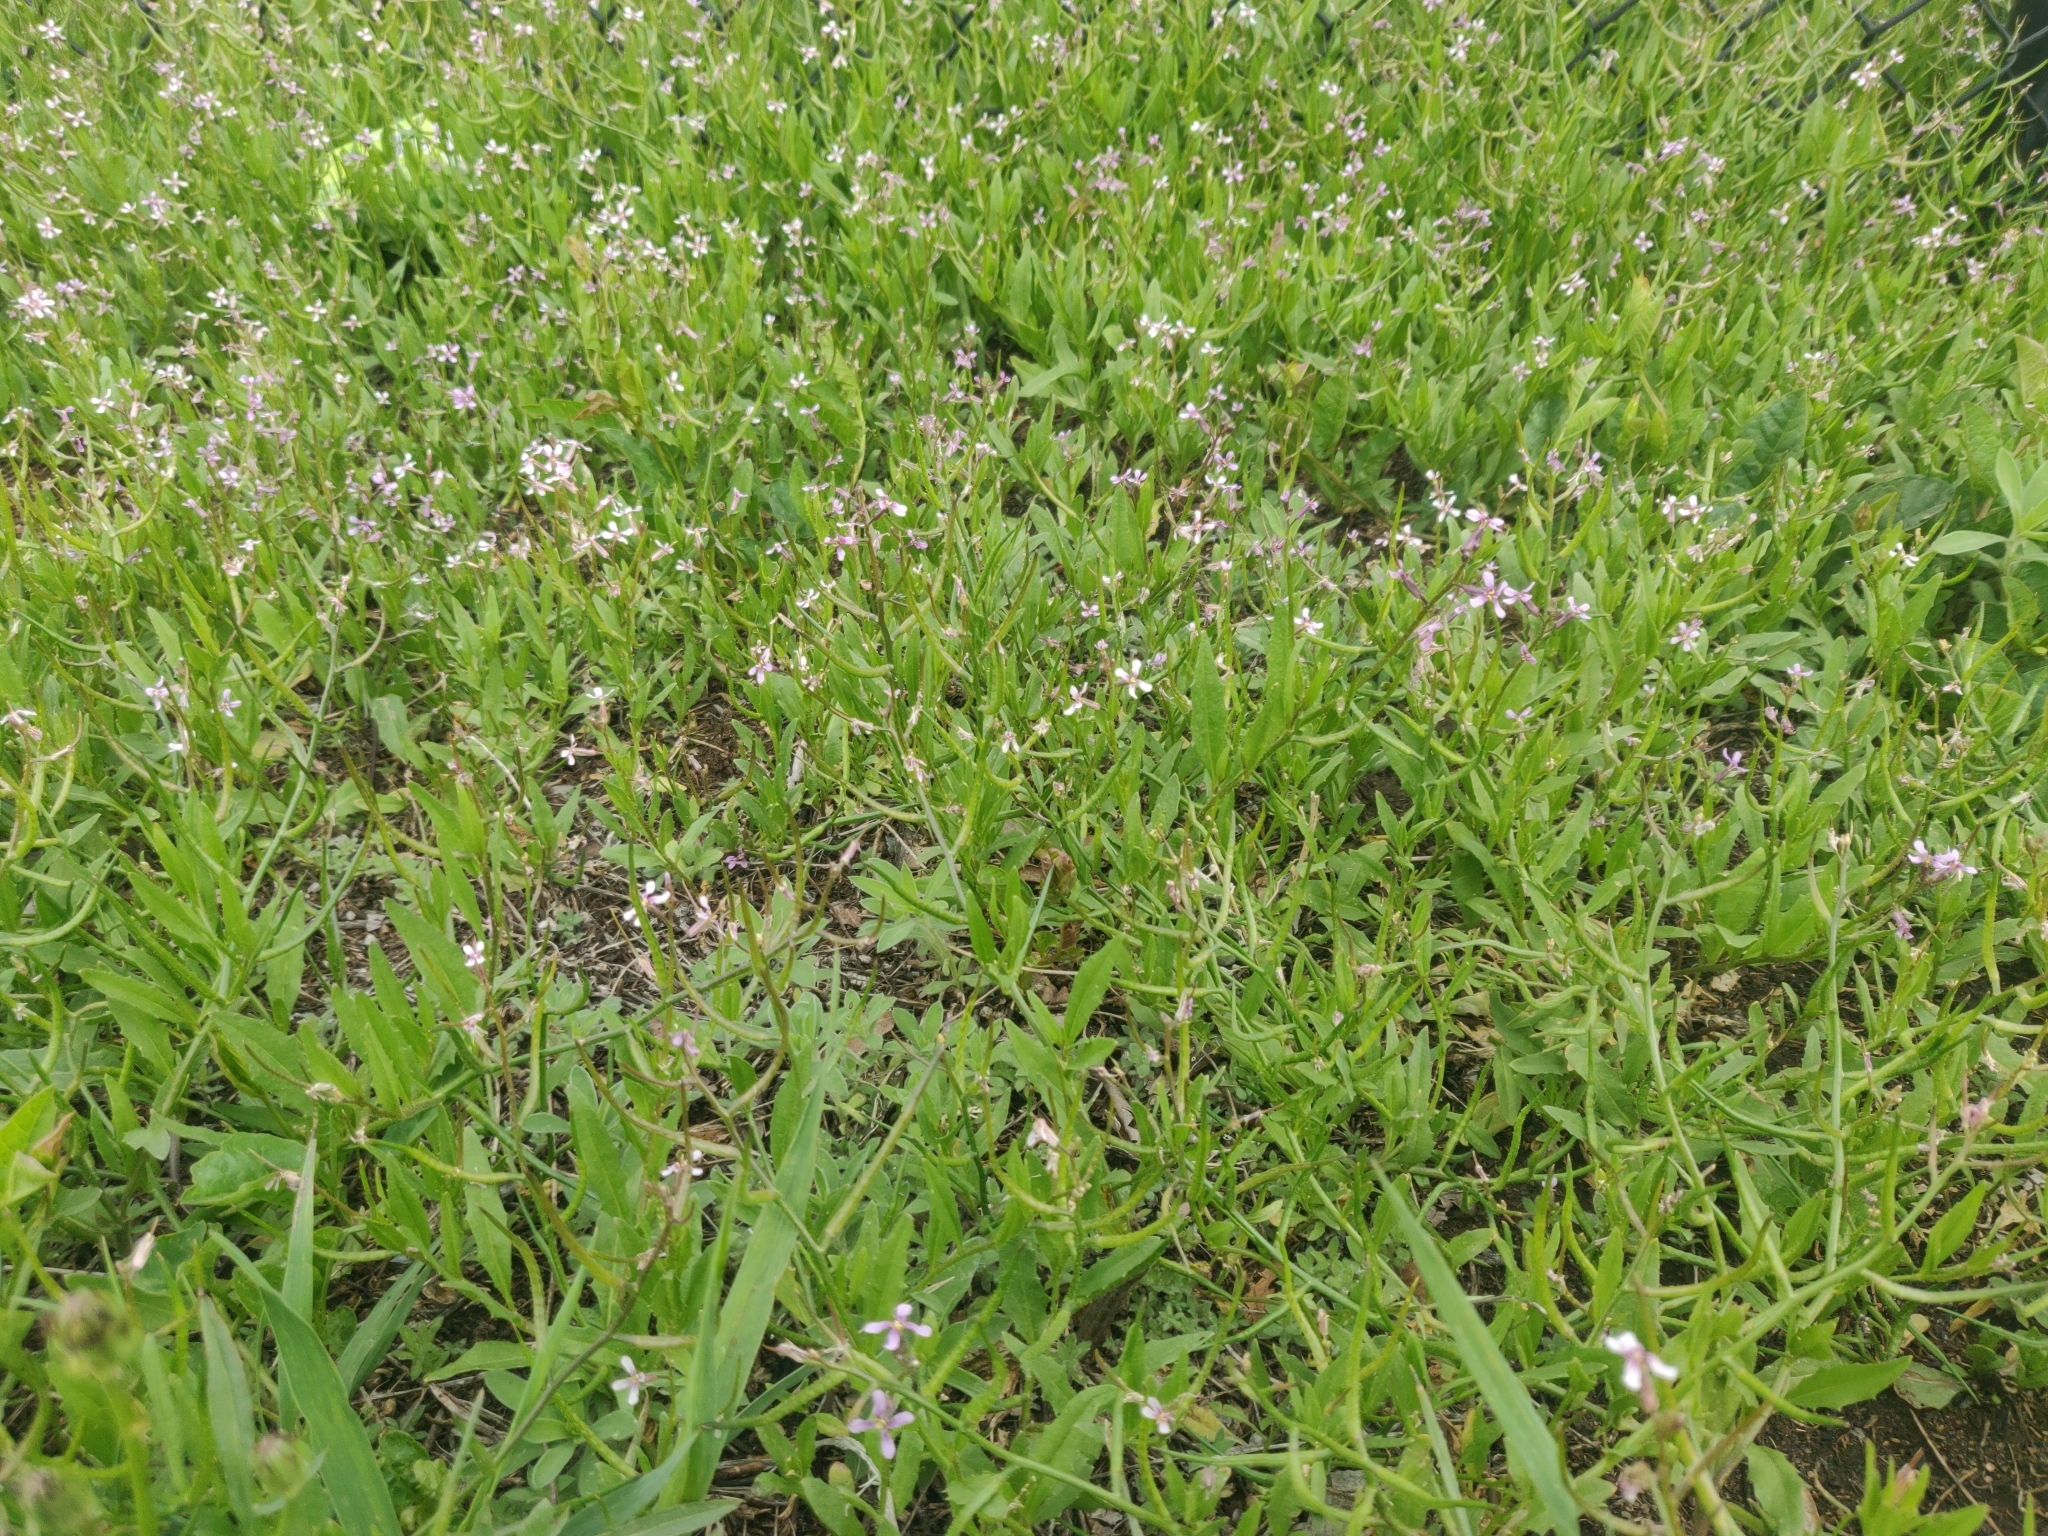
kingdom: Plantae
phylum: Tracheophyta
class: Magnoliopsida
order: Brassicales
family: Brassicaceae
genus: Chorispora
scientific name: Chorispora tenella
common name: Crossflower
